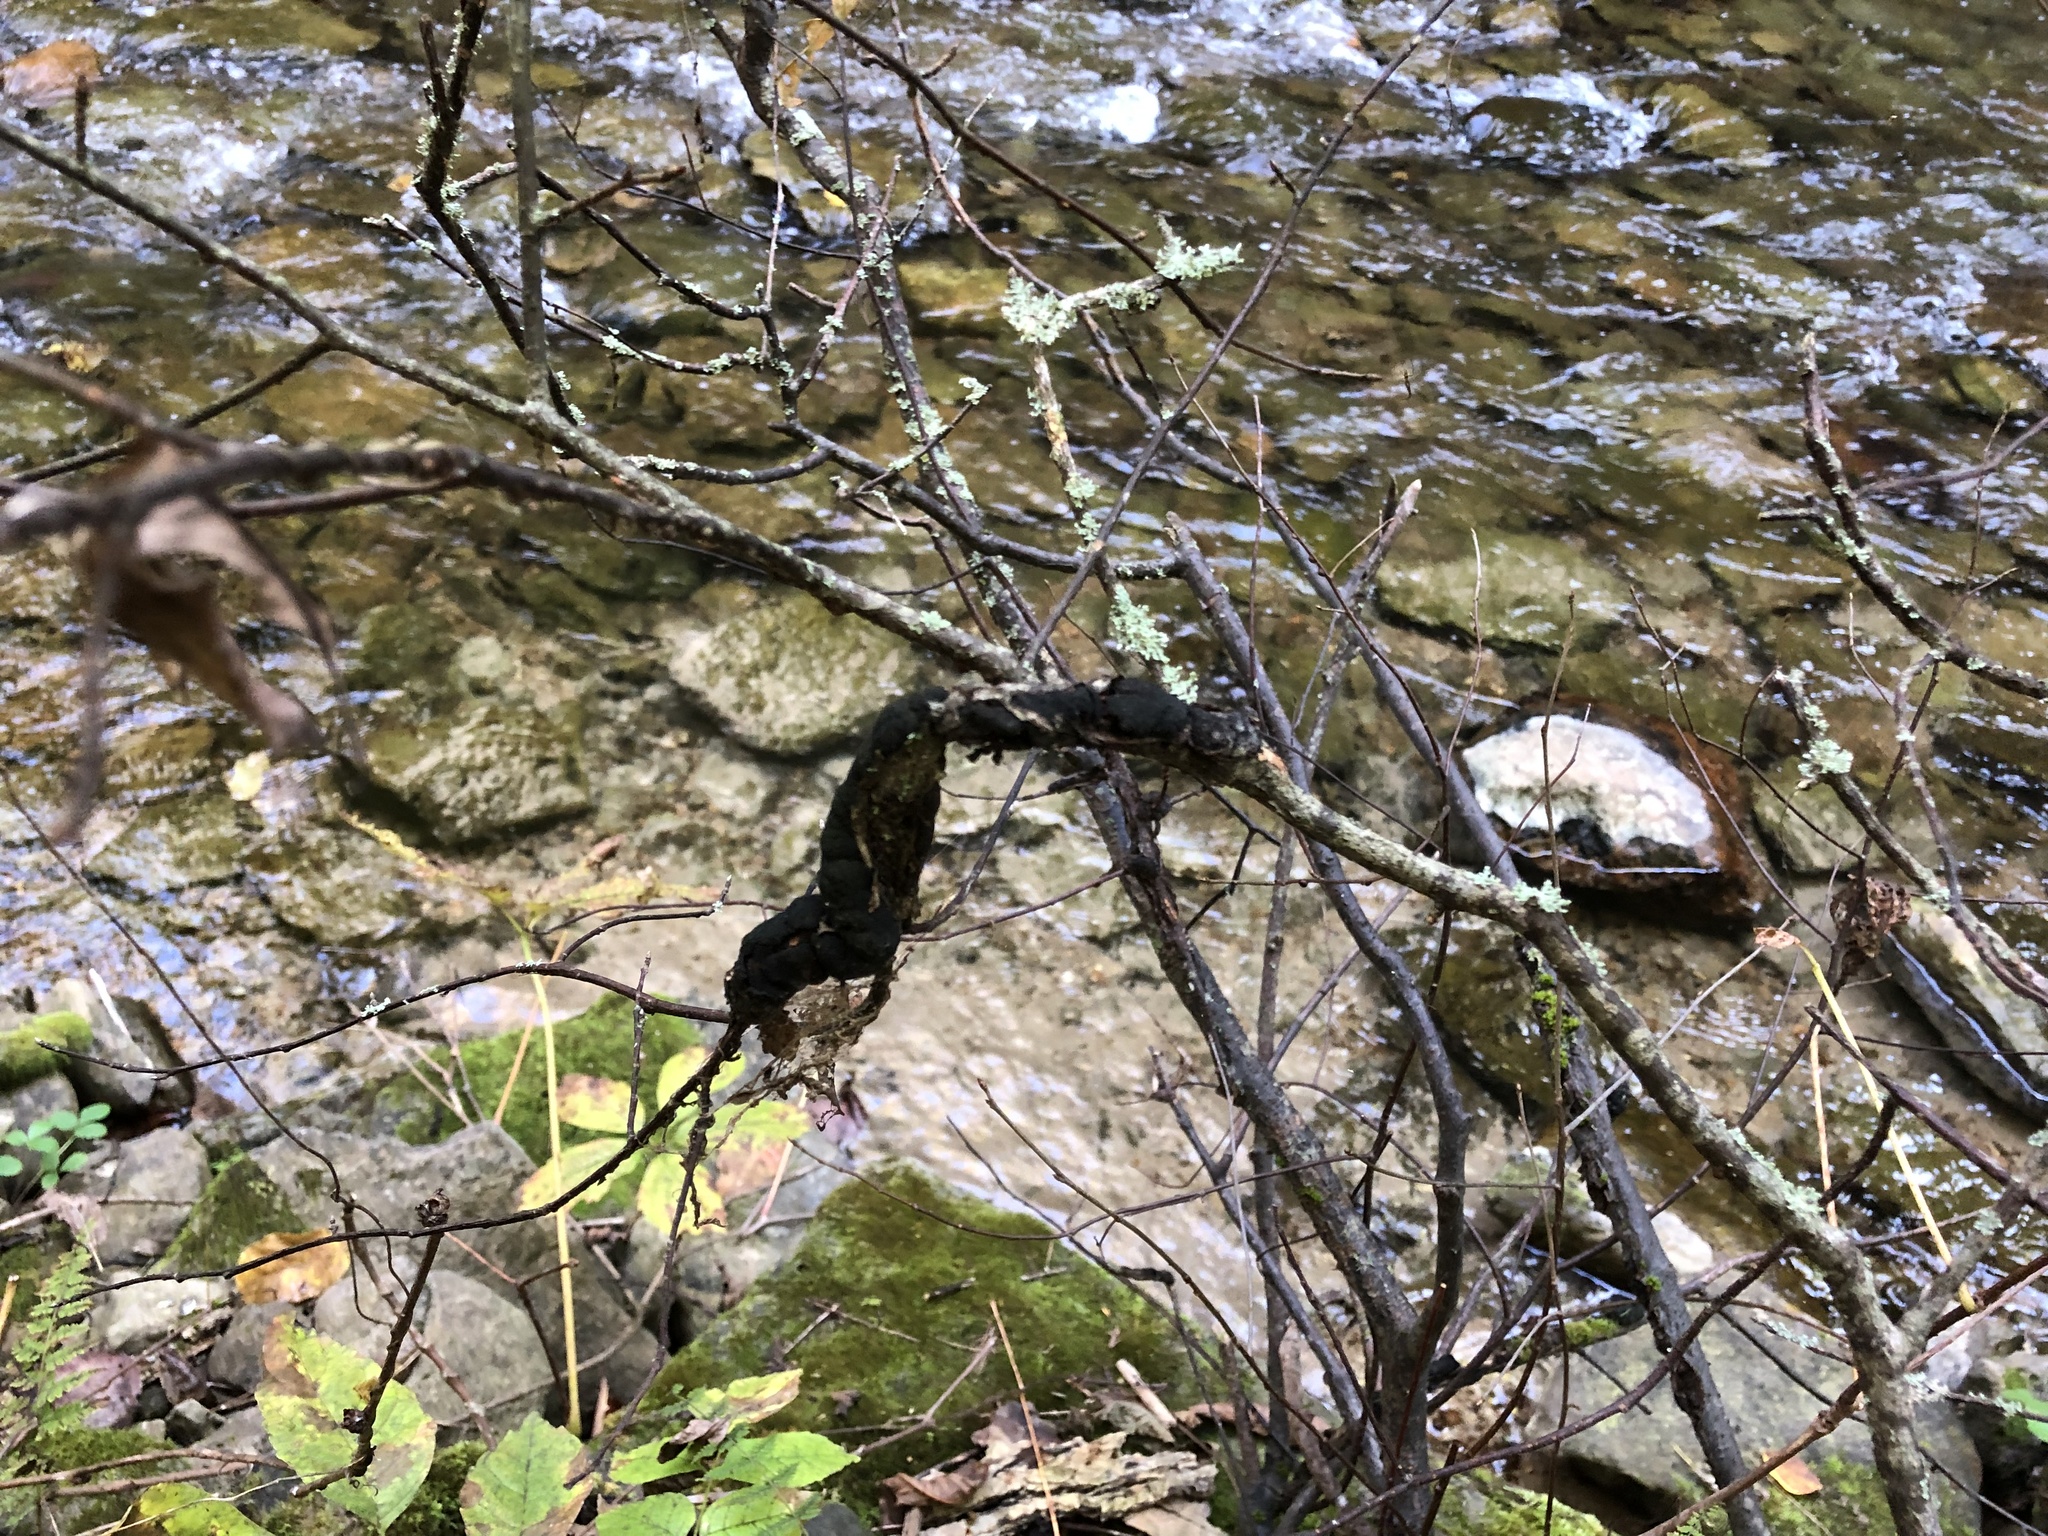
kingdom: Fungi
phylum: Ascomycota
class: Dothideomycetes
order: Venturiales
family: Venturiaceae
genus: Apiosporina
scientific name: Apiosporina morbosa
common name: Black knot
